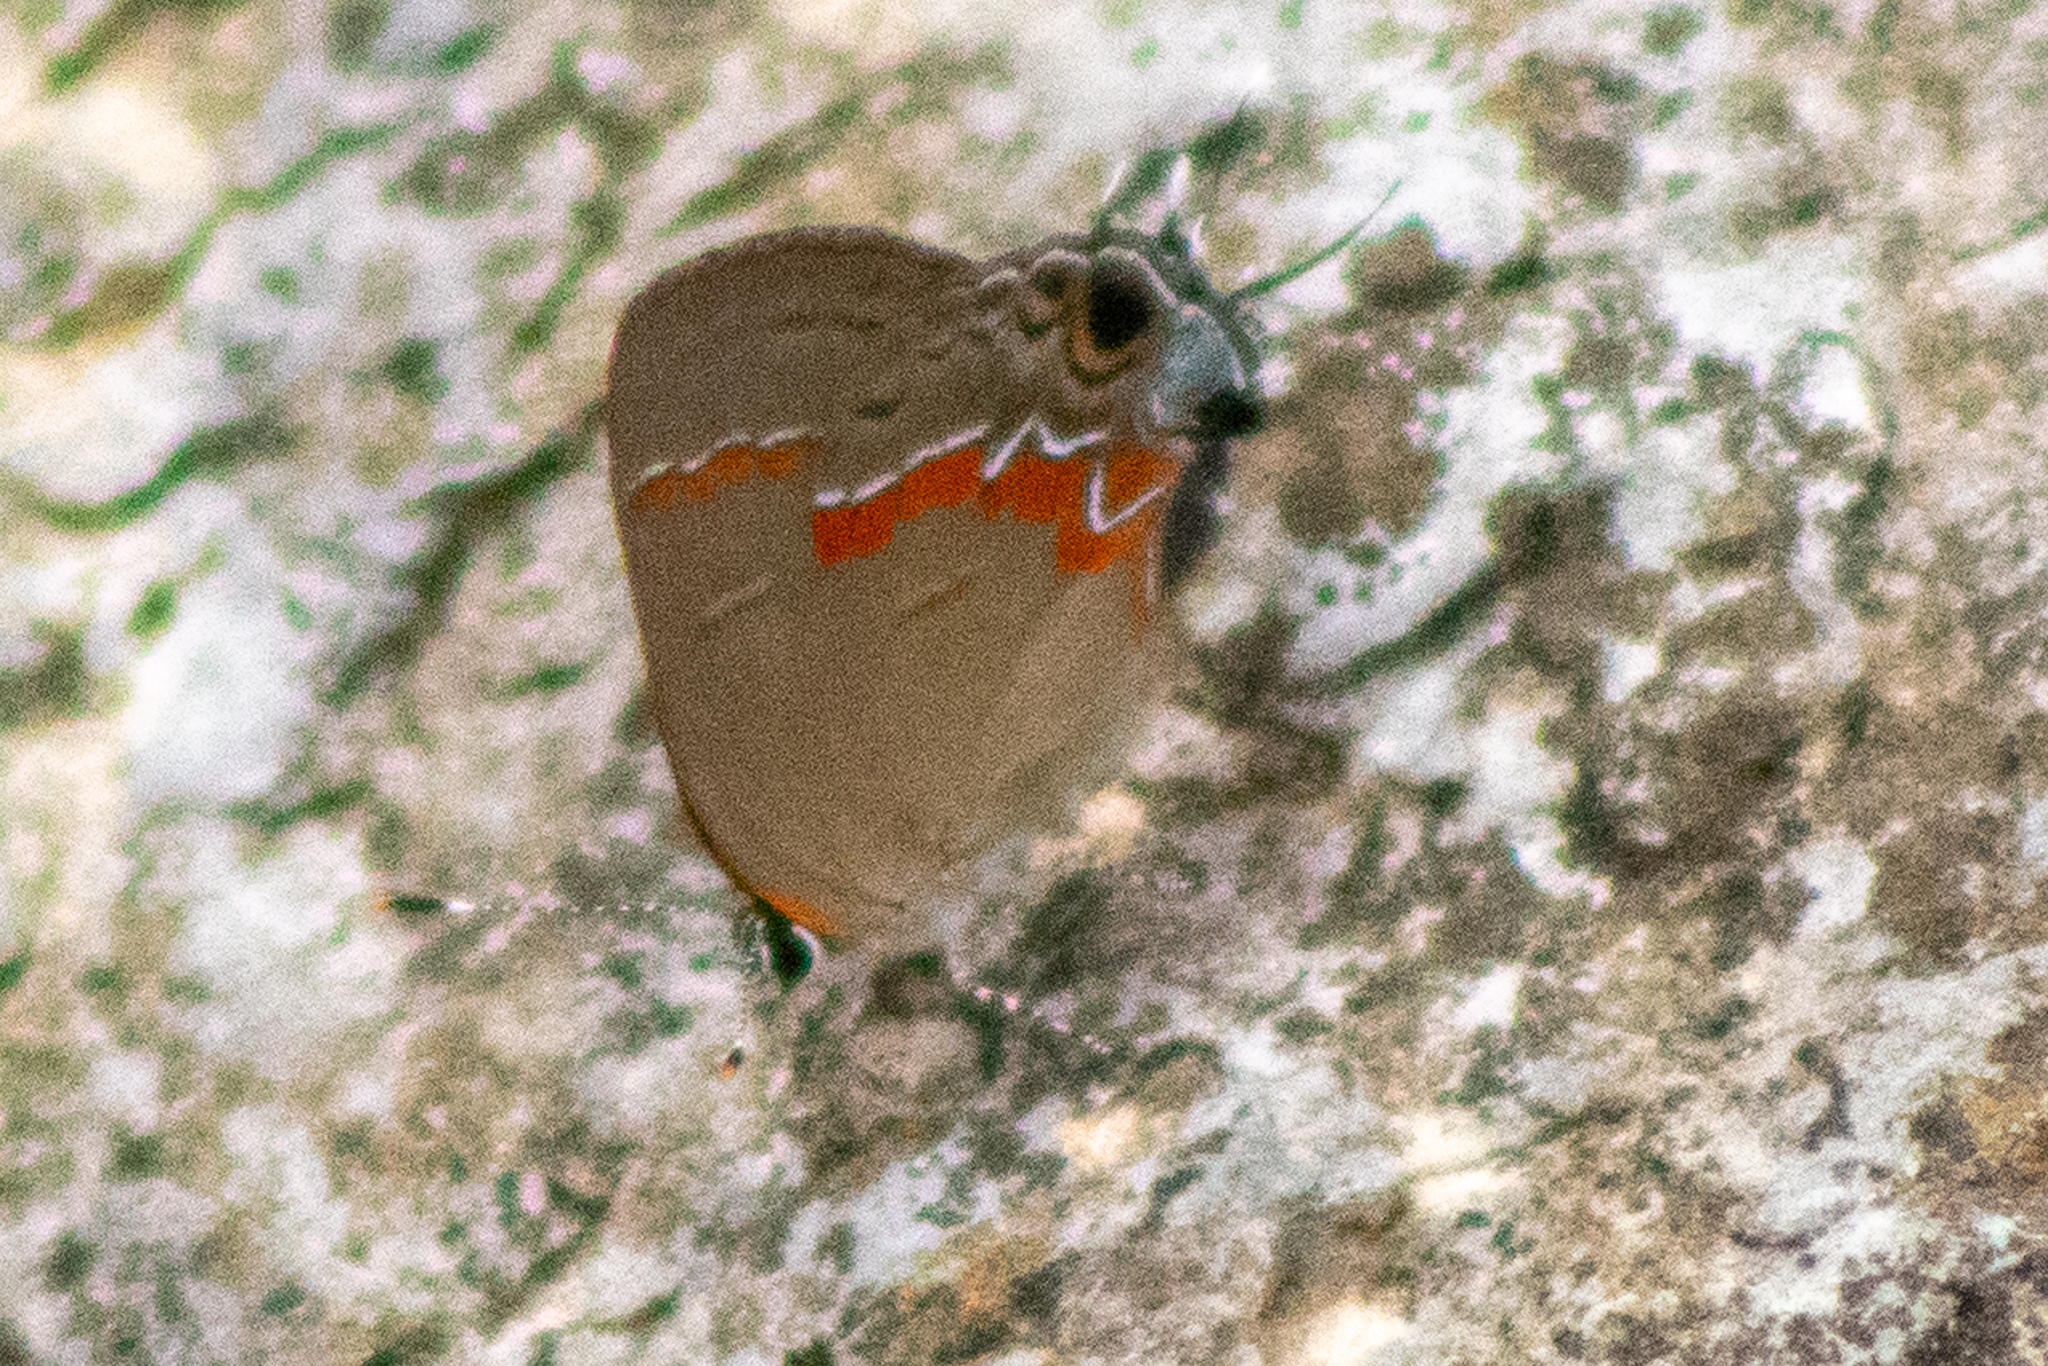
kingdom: Animalia
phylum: Arthropoda
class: Insecta
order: Lepidoptera
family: Lycaenidae
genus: Calycopis
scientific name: Calycopis cecrops
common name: Red-banded hairstreak
